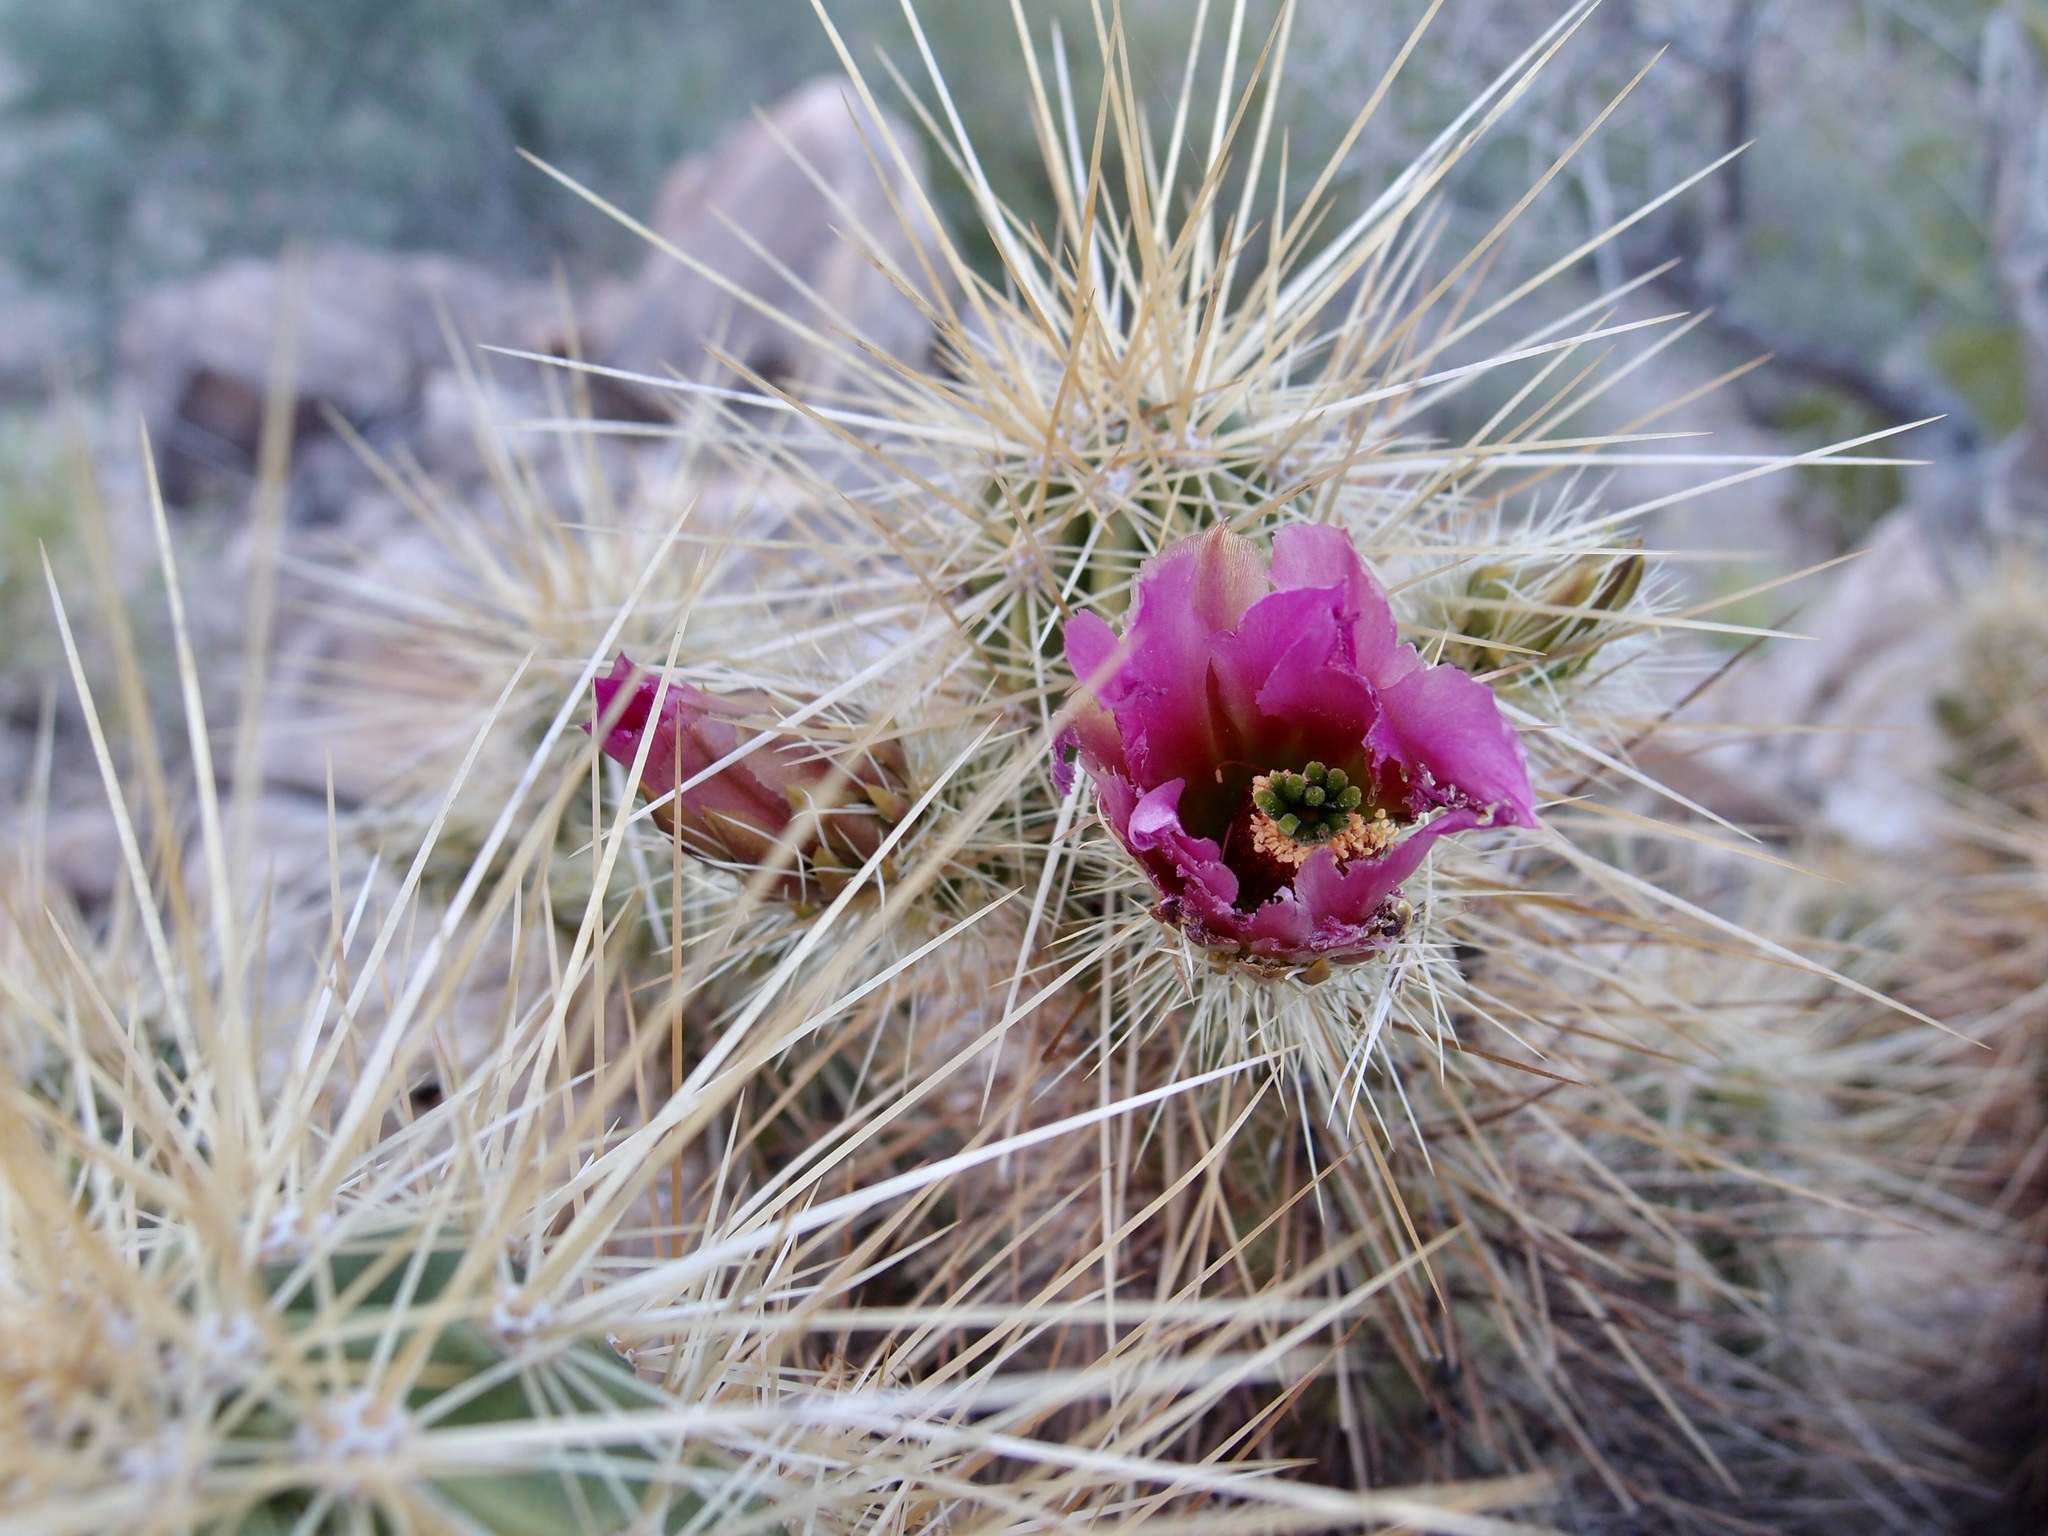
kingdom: Plantae
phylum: Tracheophyta
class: Magnoliopsida
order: Caryophyllales
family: Cactaceae
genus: Echinocereus
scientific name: Echinocereus nicholii
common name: Nichol's hedgehog cactus
